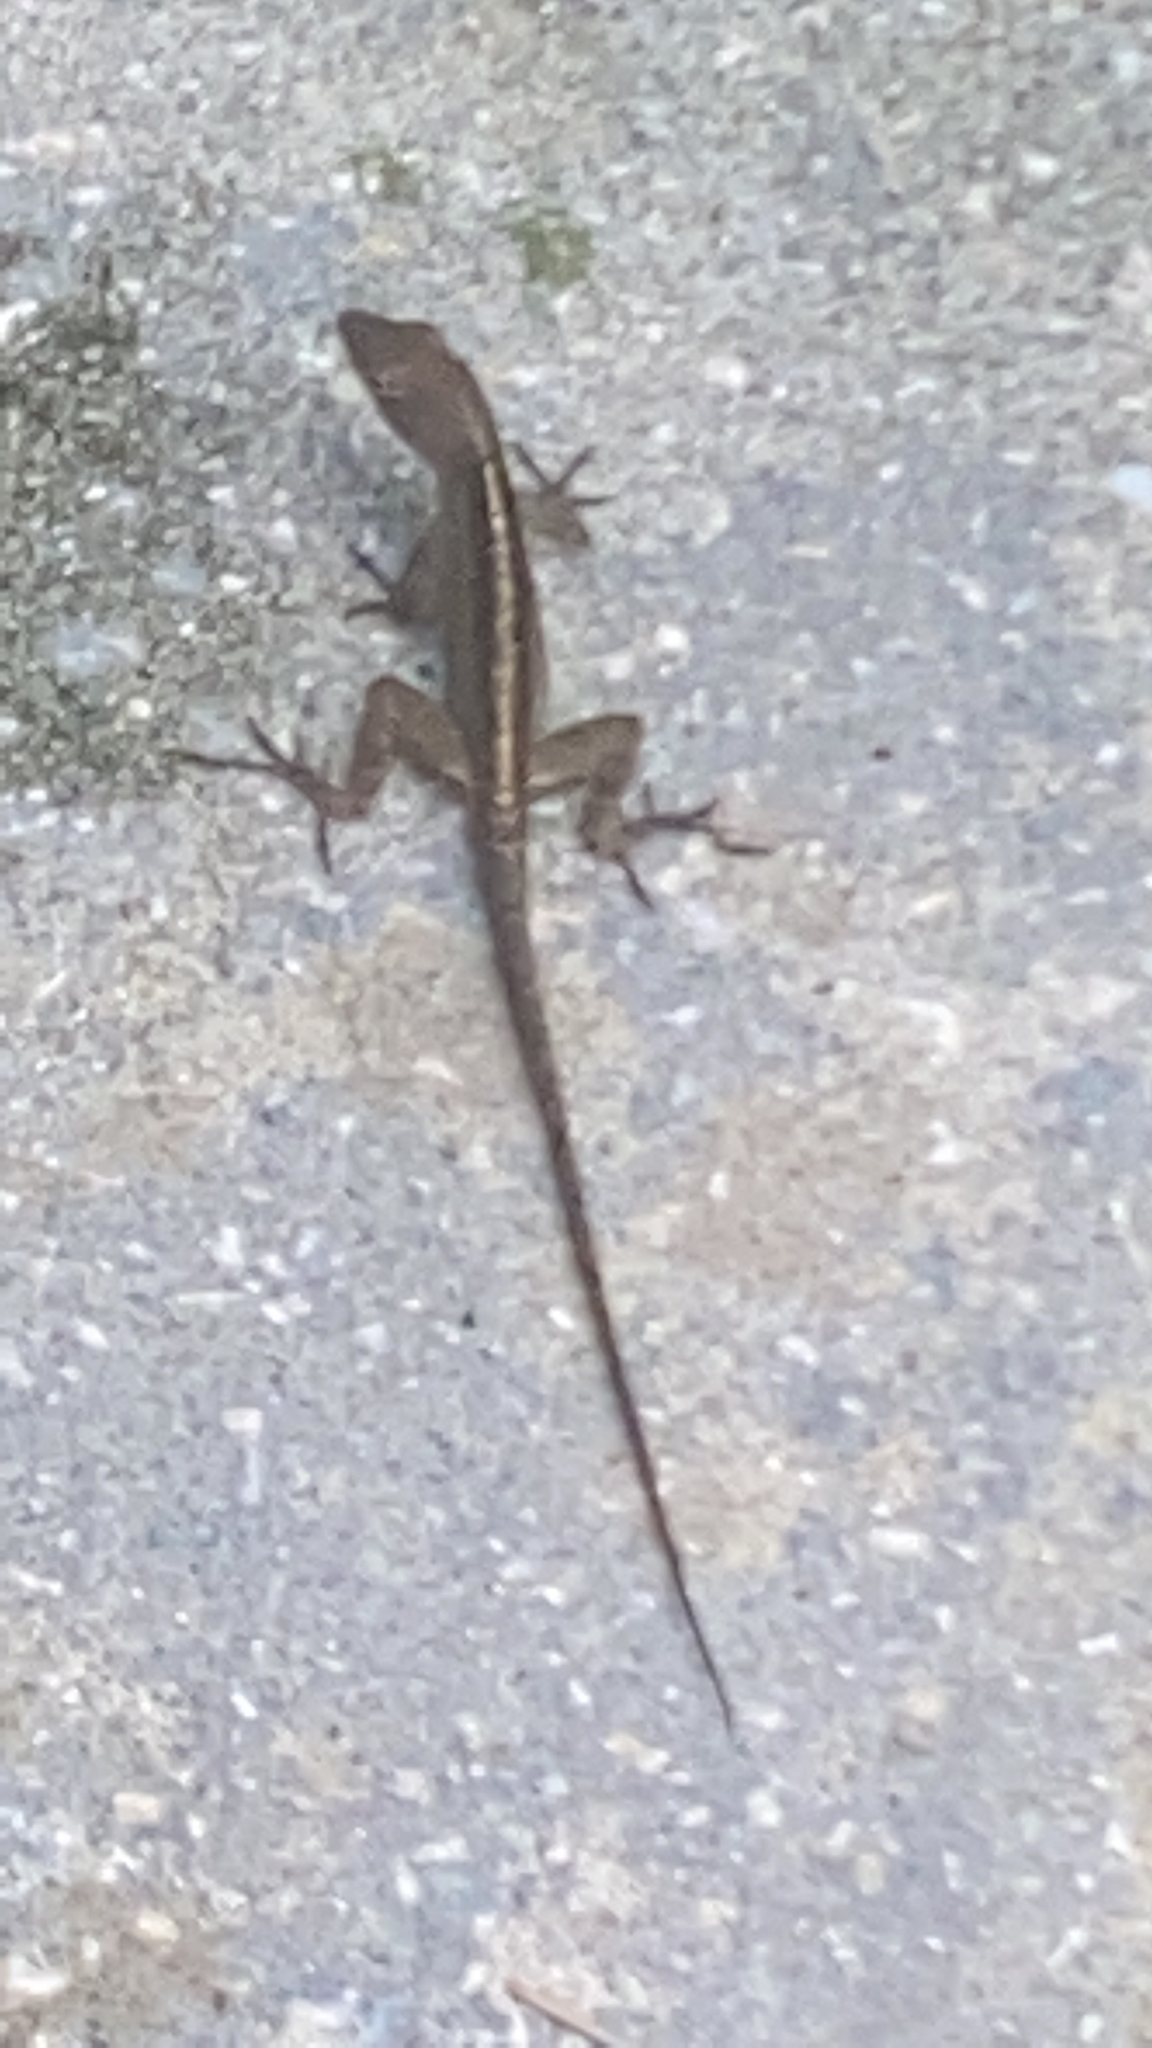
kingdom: Animalia
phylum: Chordata
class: Squamata
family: Dactyloidae
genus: Anolis
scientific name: Anolis sagrei
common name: Brown anole
